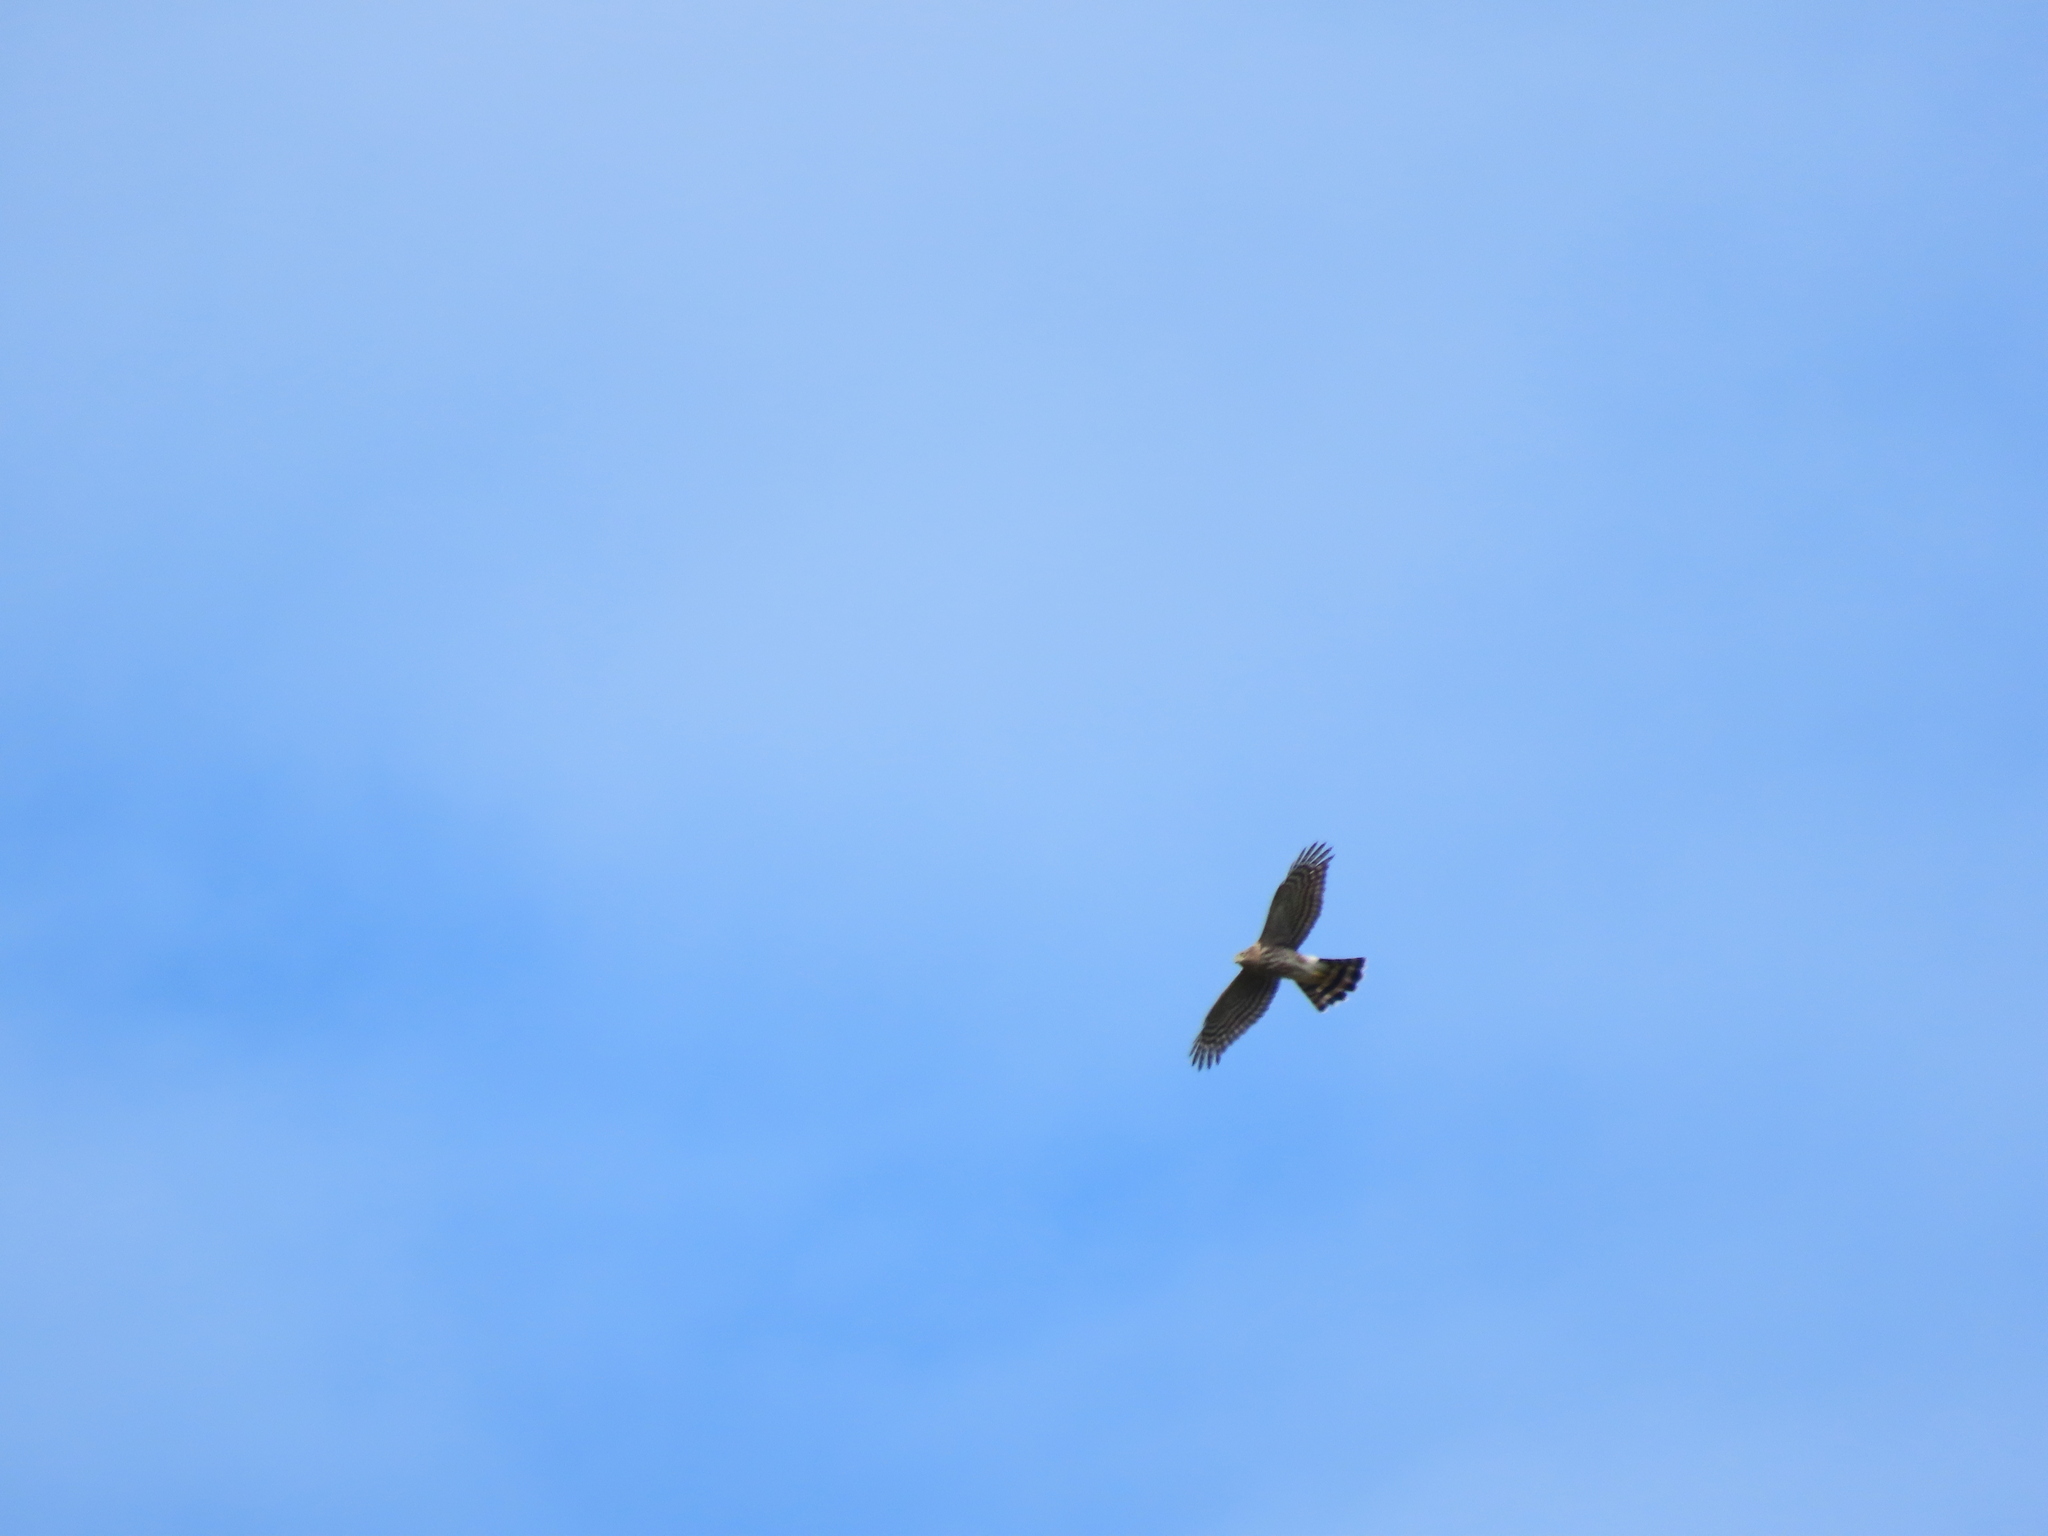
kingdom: Animalia
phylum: Chordata
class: Aves
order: Accipitriformes
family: Accipitridae
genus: Accipiter
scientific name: Accipiter cooperii
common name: Cooper's hawk
